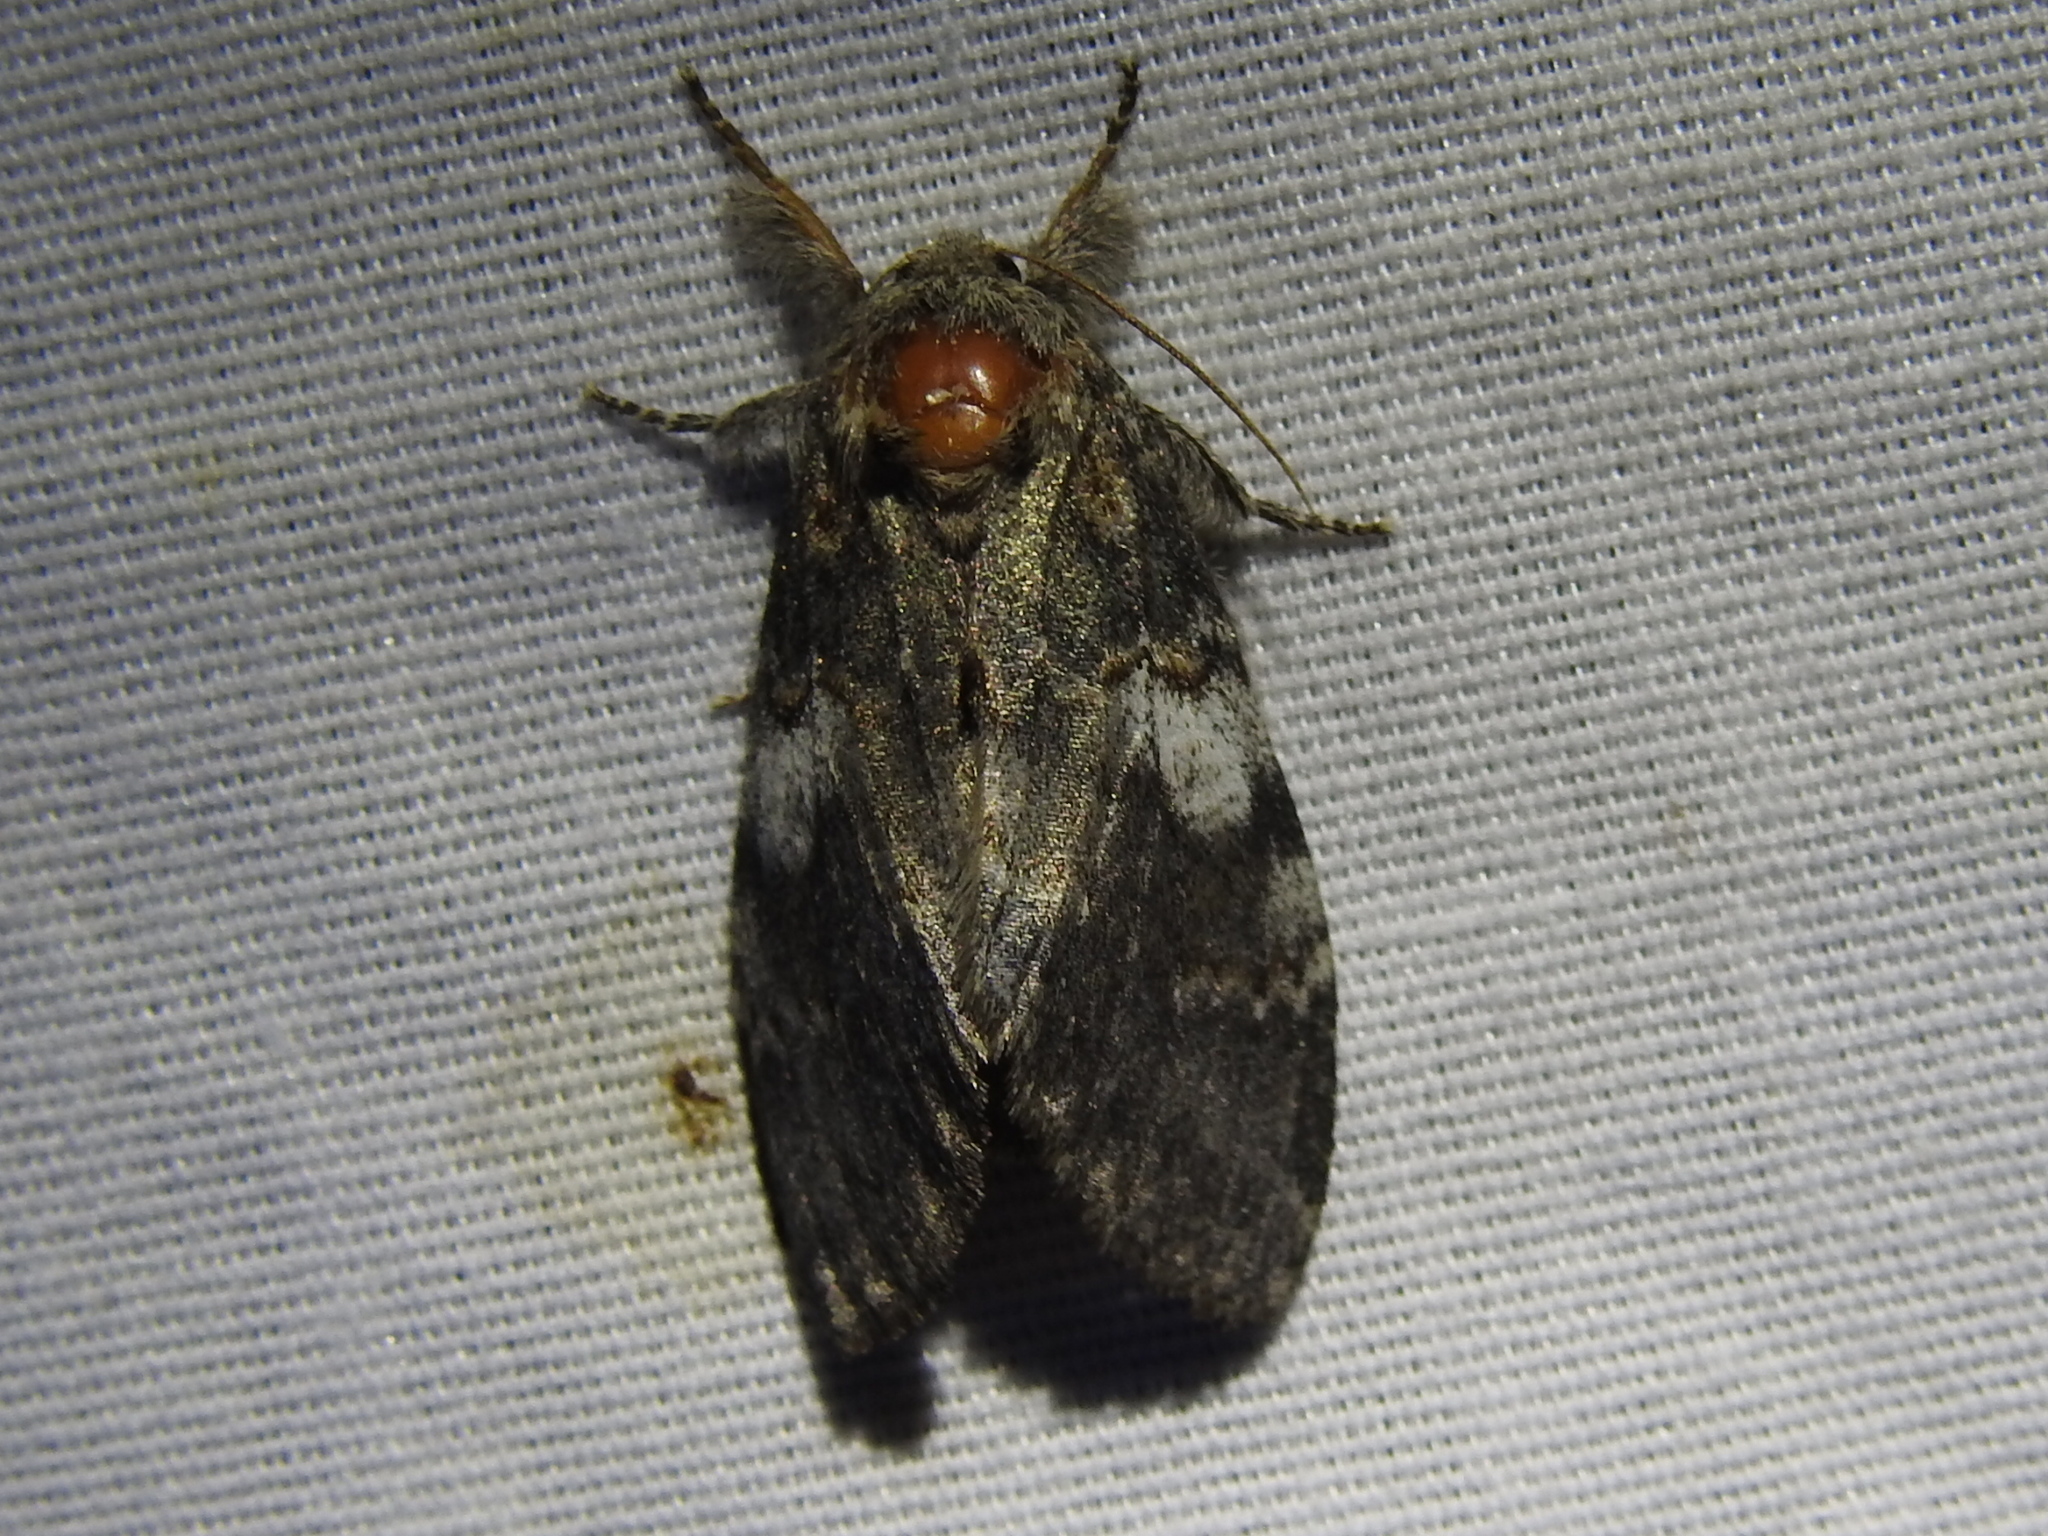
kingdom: Animalia
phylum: Arthropoda
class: Insecta
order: Lepidoptera
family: Notodontidae
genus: Peridea
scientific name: Peridea angulosa
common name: Angulose prominent
